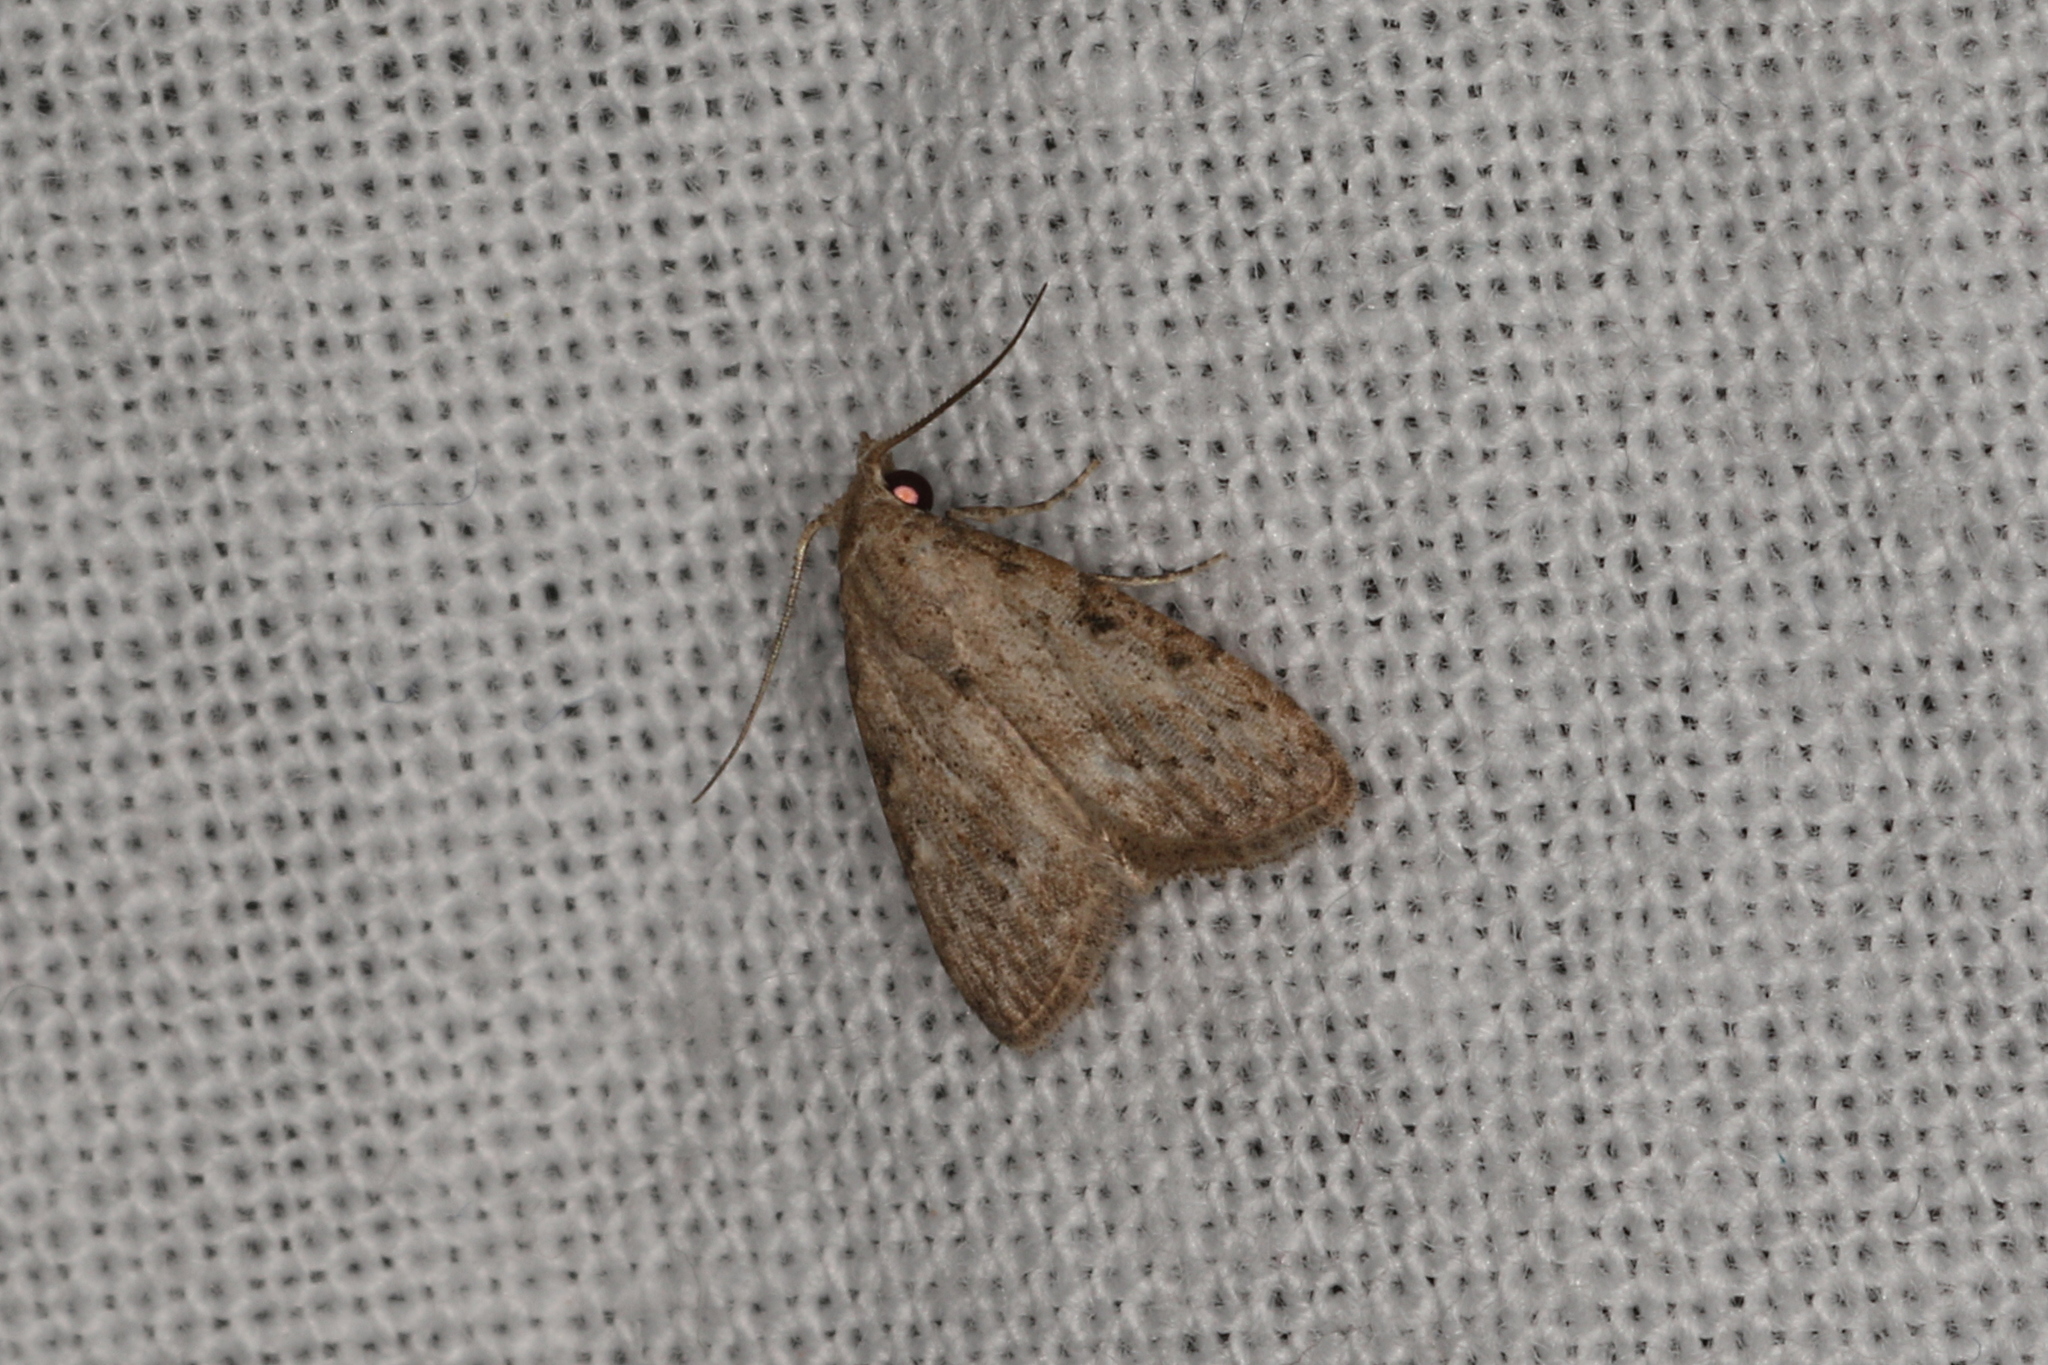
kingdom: Animalia
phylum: Arthropoda
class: Insecta
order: Lepidoptera
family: Nolidae
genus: Nola
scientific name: Nola squalida
